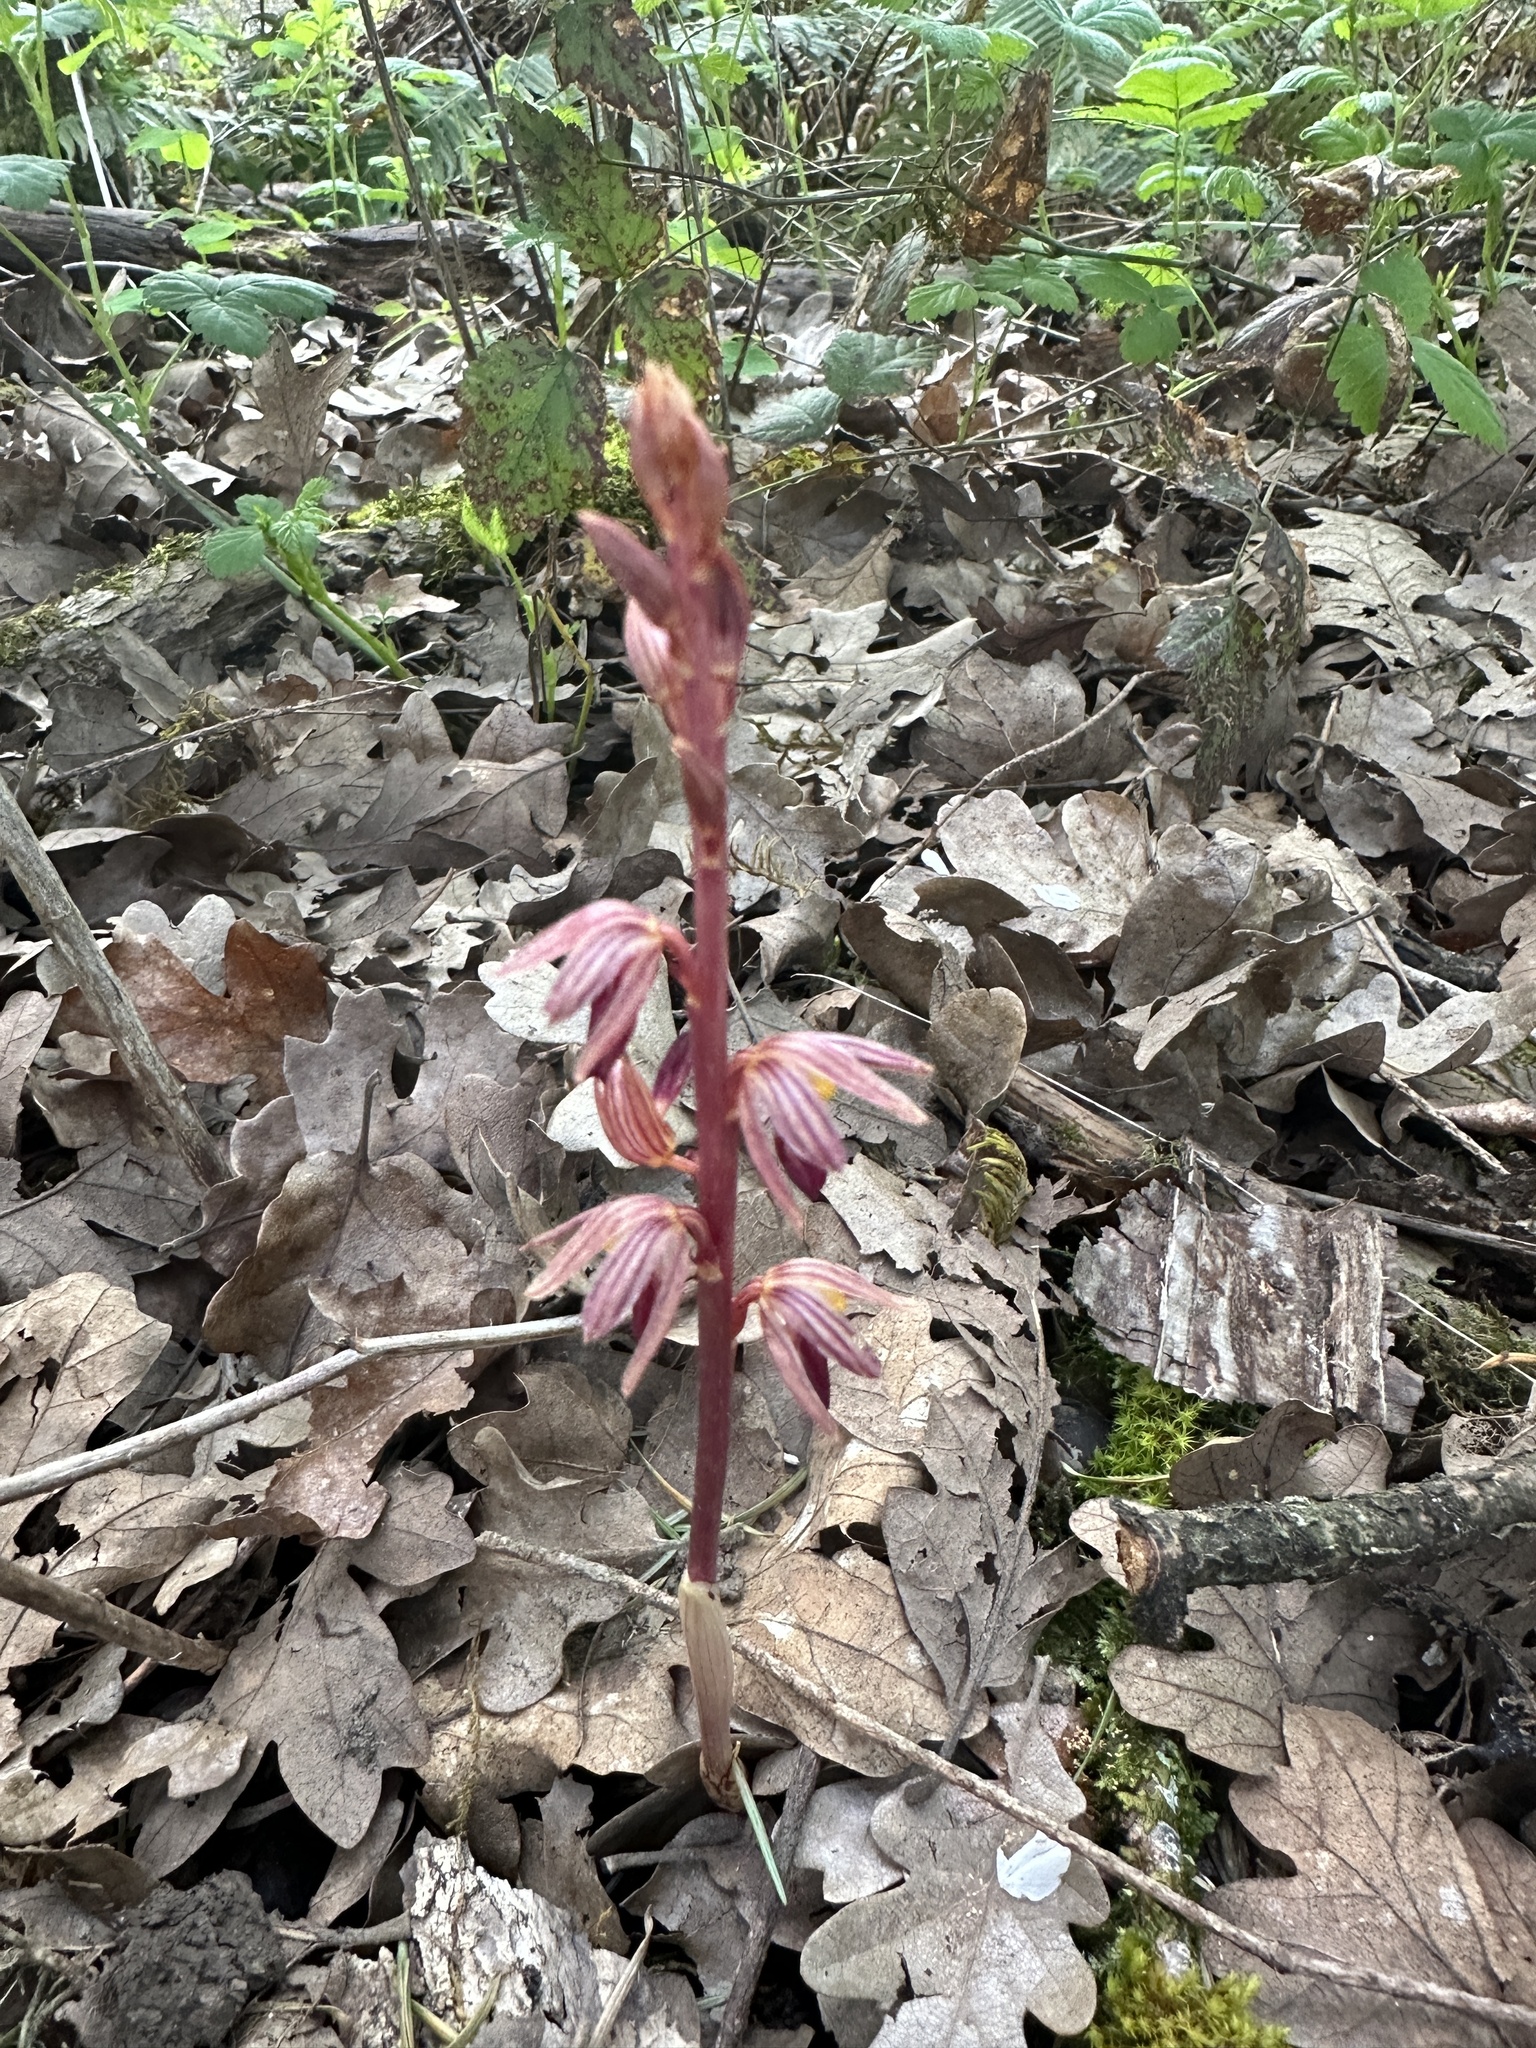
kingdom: Plantae
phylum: Tracheophyta
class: Liliopsida
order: Asparagales
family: Orchidaceae
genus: Corallorhiza
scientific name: Corallorhiza striata
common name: Hooded coralroot
